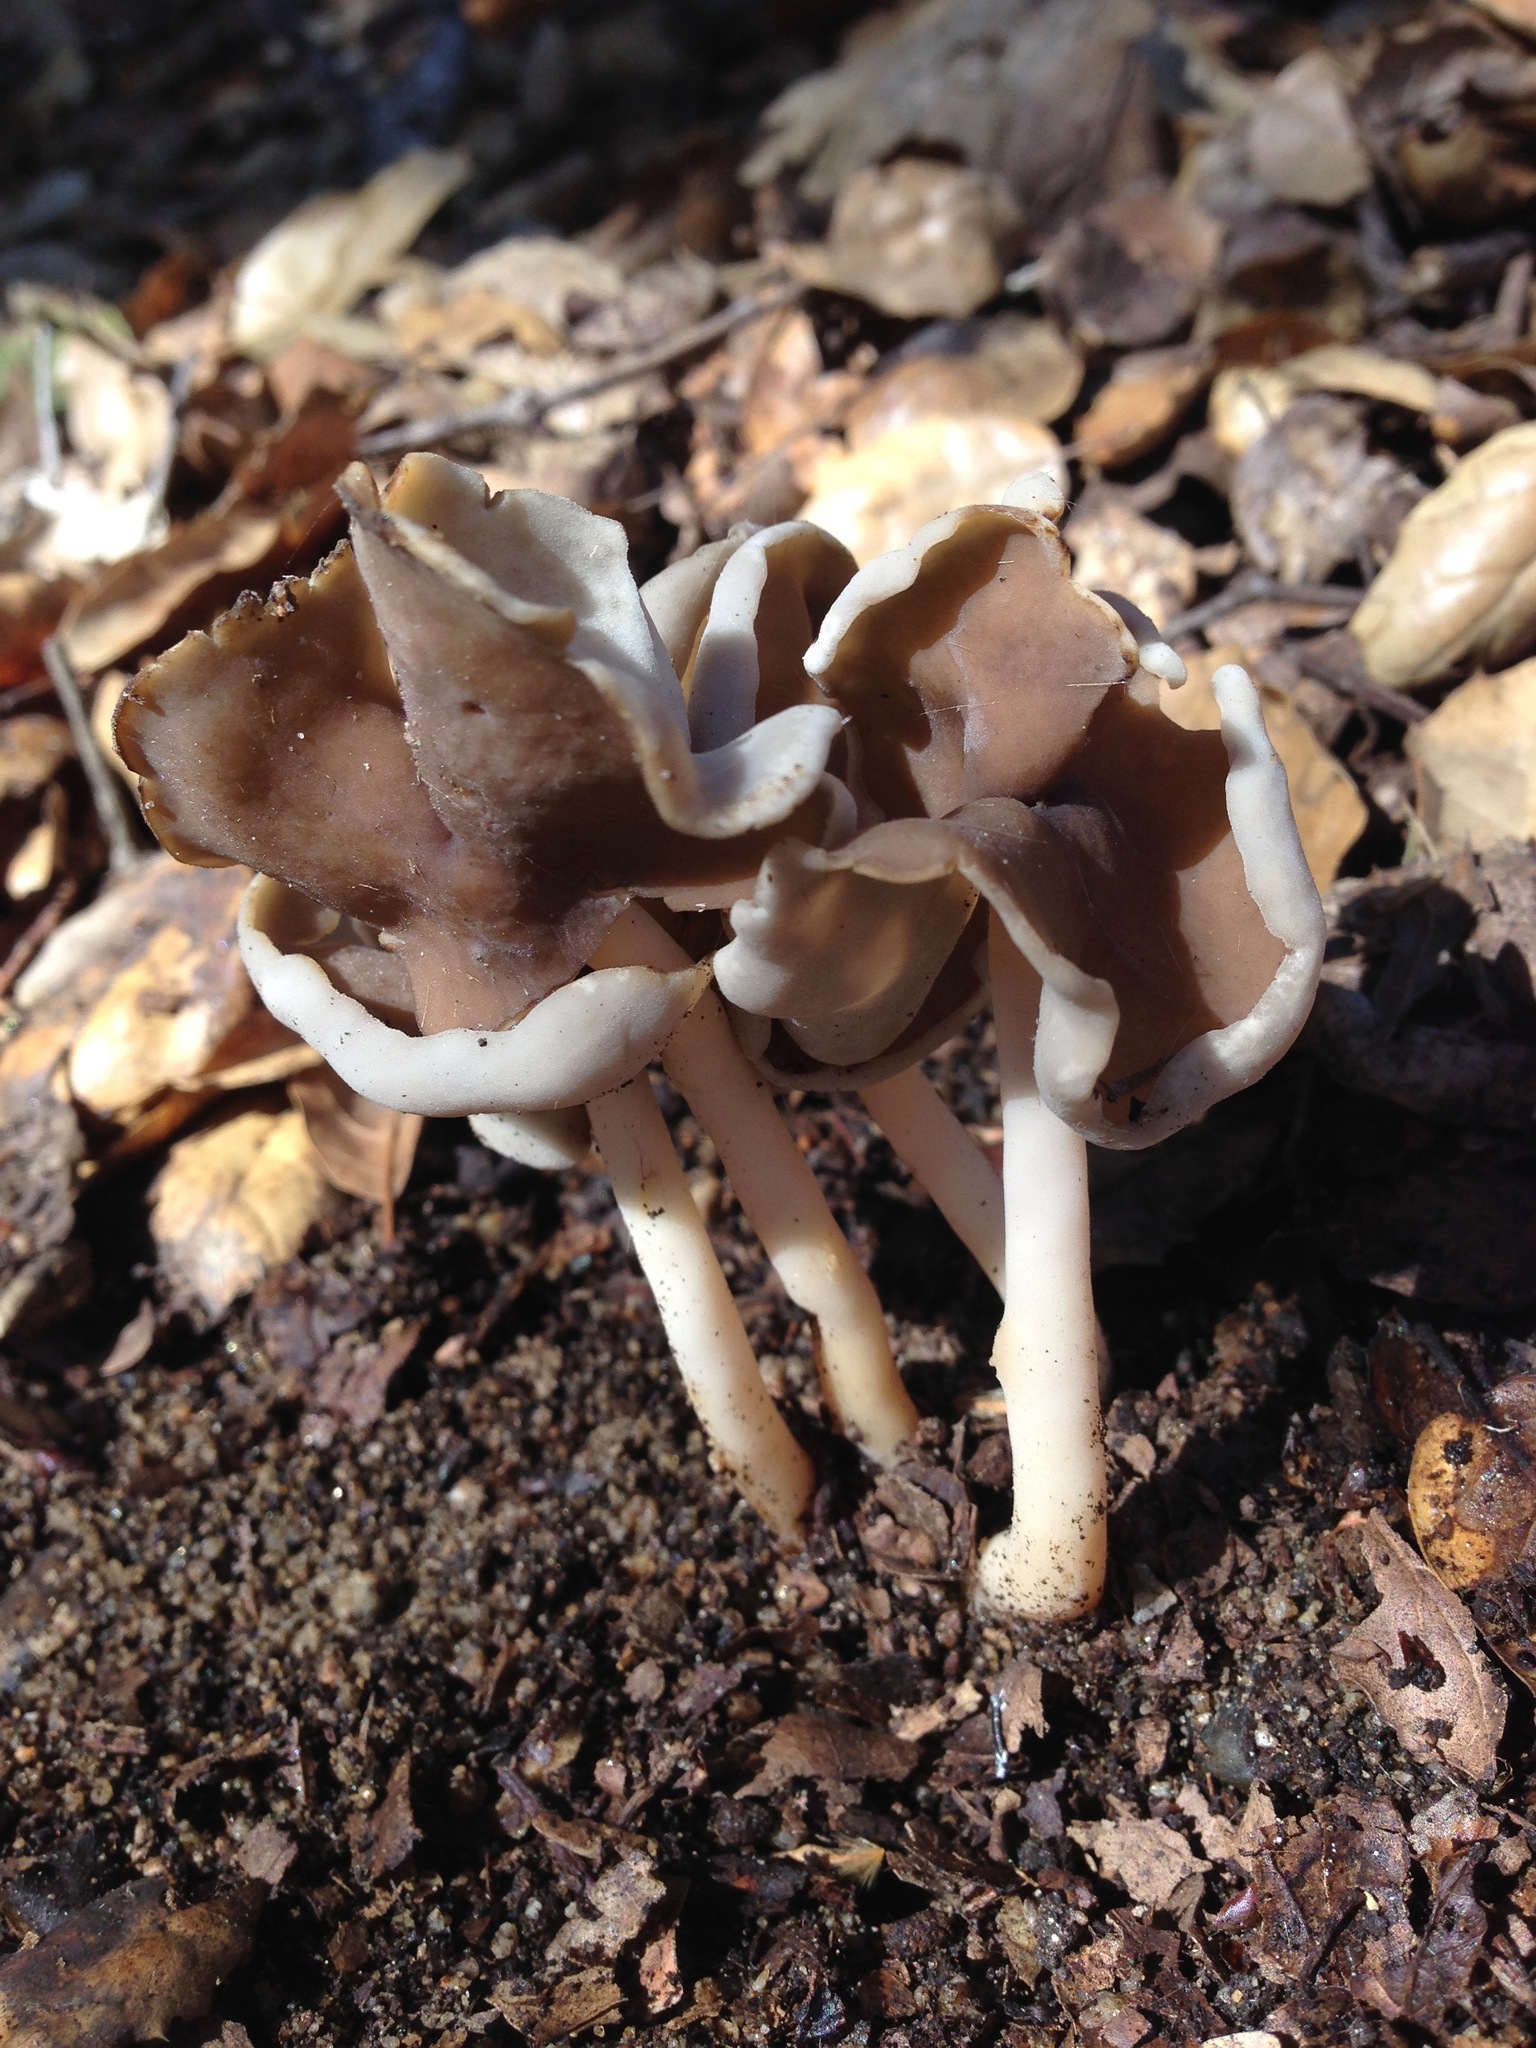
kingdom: Fungi
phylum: Ascomycota
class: Pezizomycetes
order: Pezizales
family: Helvellaceae
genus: Helvella
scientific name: Helvella compressa
